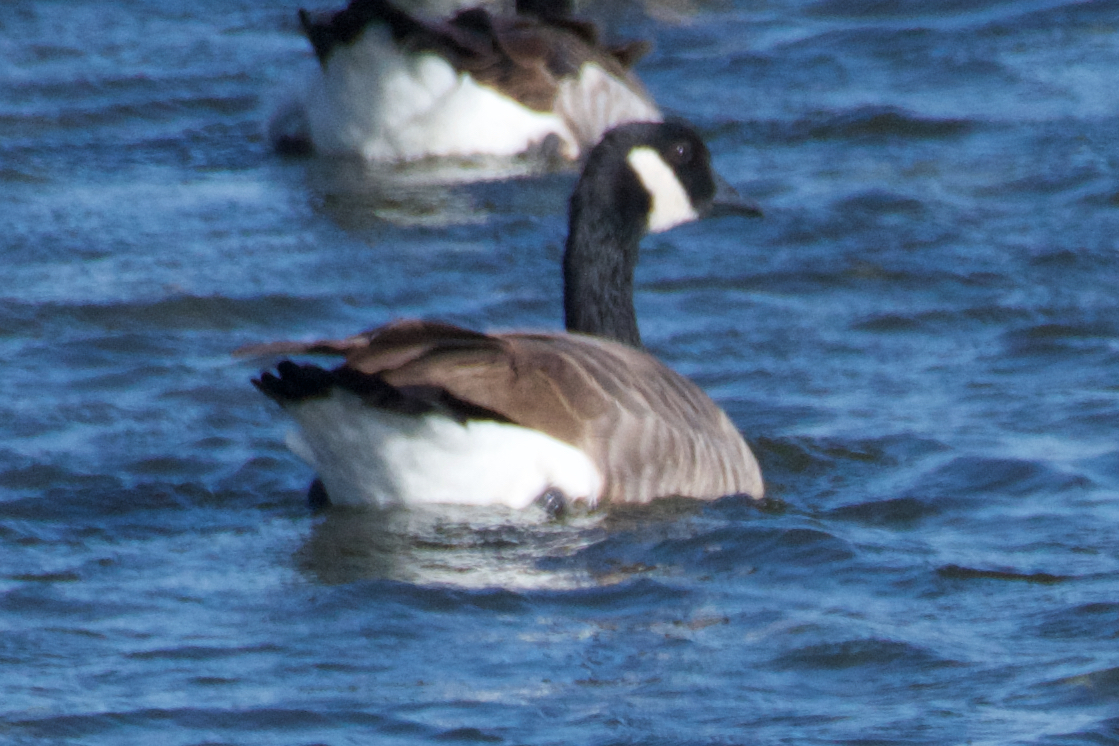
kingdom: Animalia
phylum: Chordata
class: Aves
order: Anseriformes
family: Anatidae
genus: Branta
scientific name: Branta canadensis
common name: Canada goose
